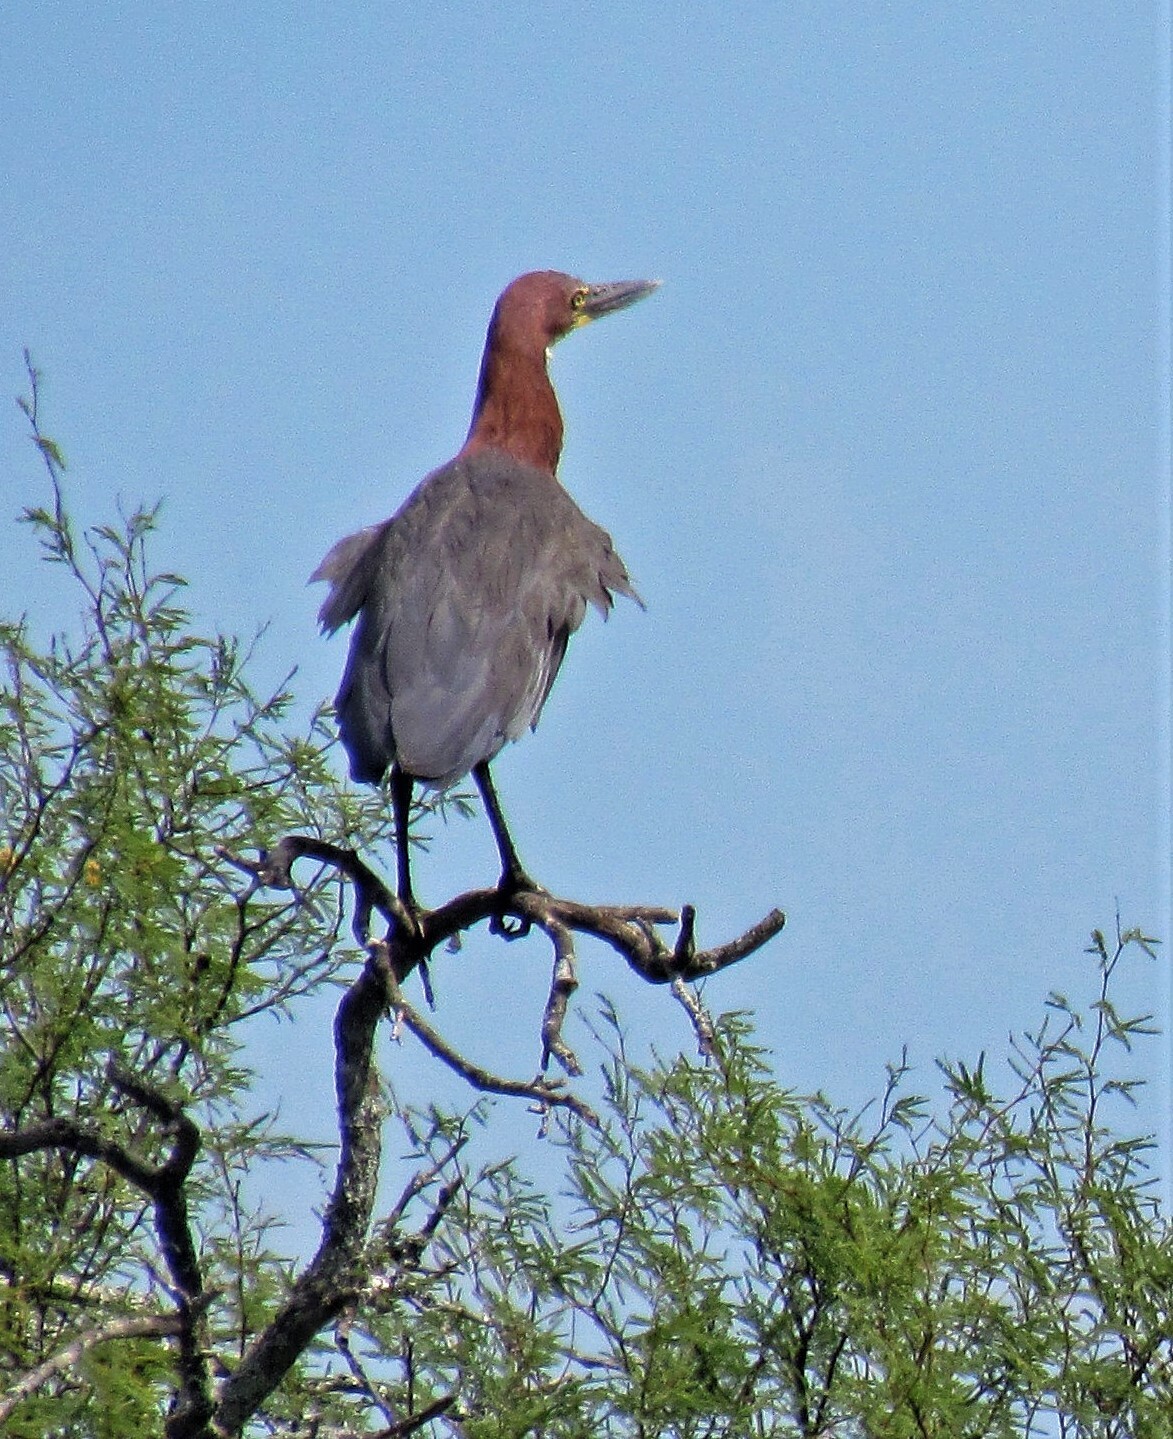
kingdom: Animalia
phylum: Chordata
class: Aves
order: Pelecaniformes
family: Ardeidae
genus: Tigrisoma
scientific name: Tigrisoma lineatum
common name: Rufescent tiger-heron
